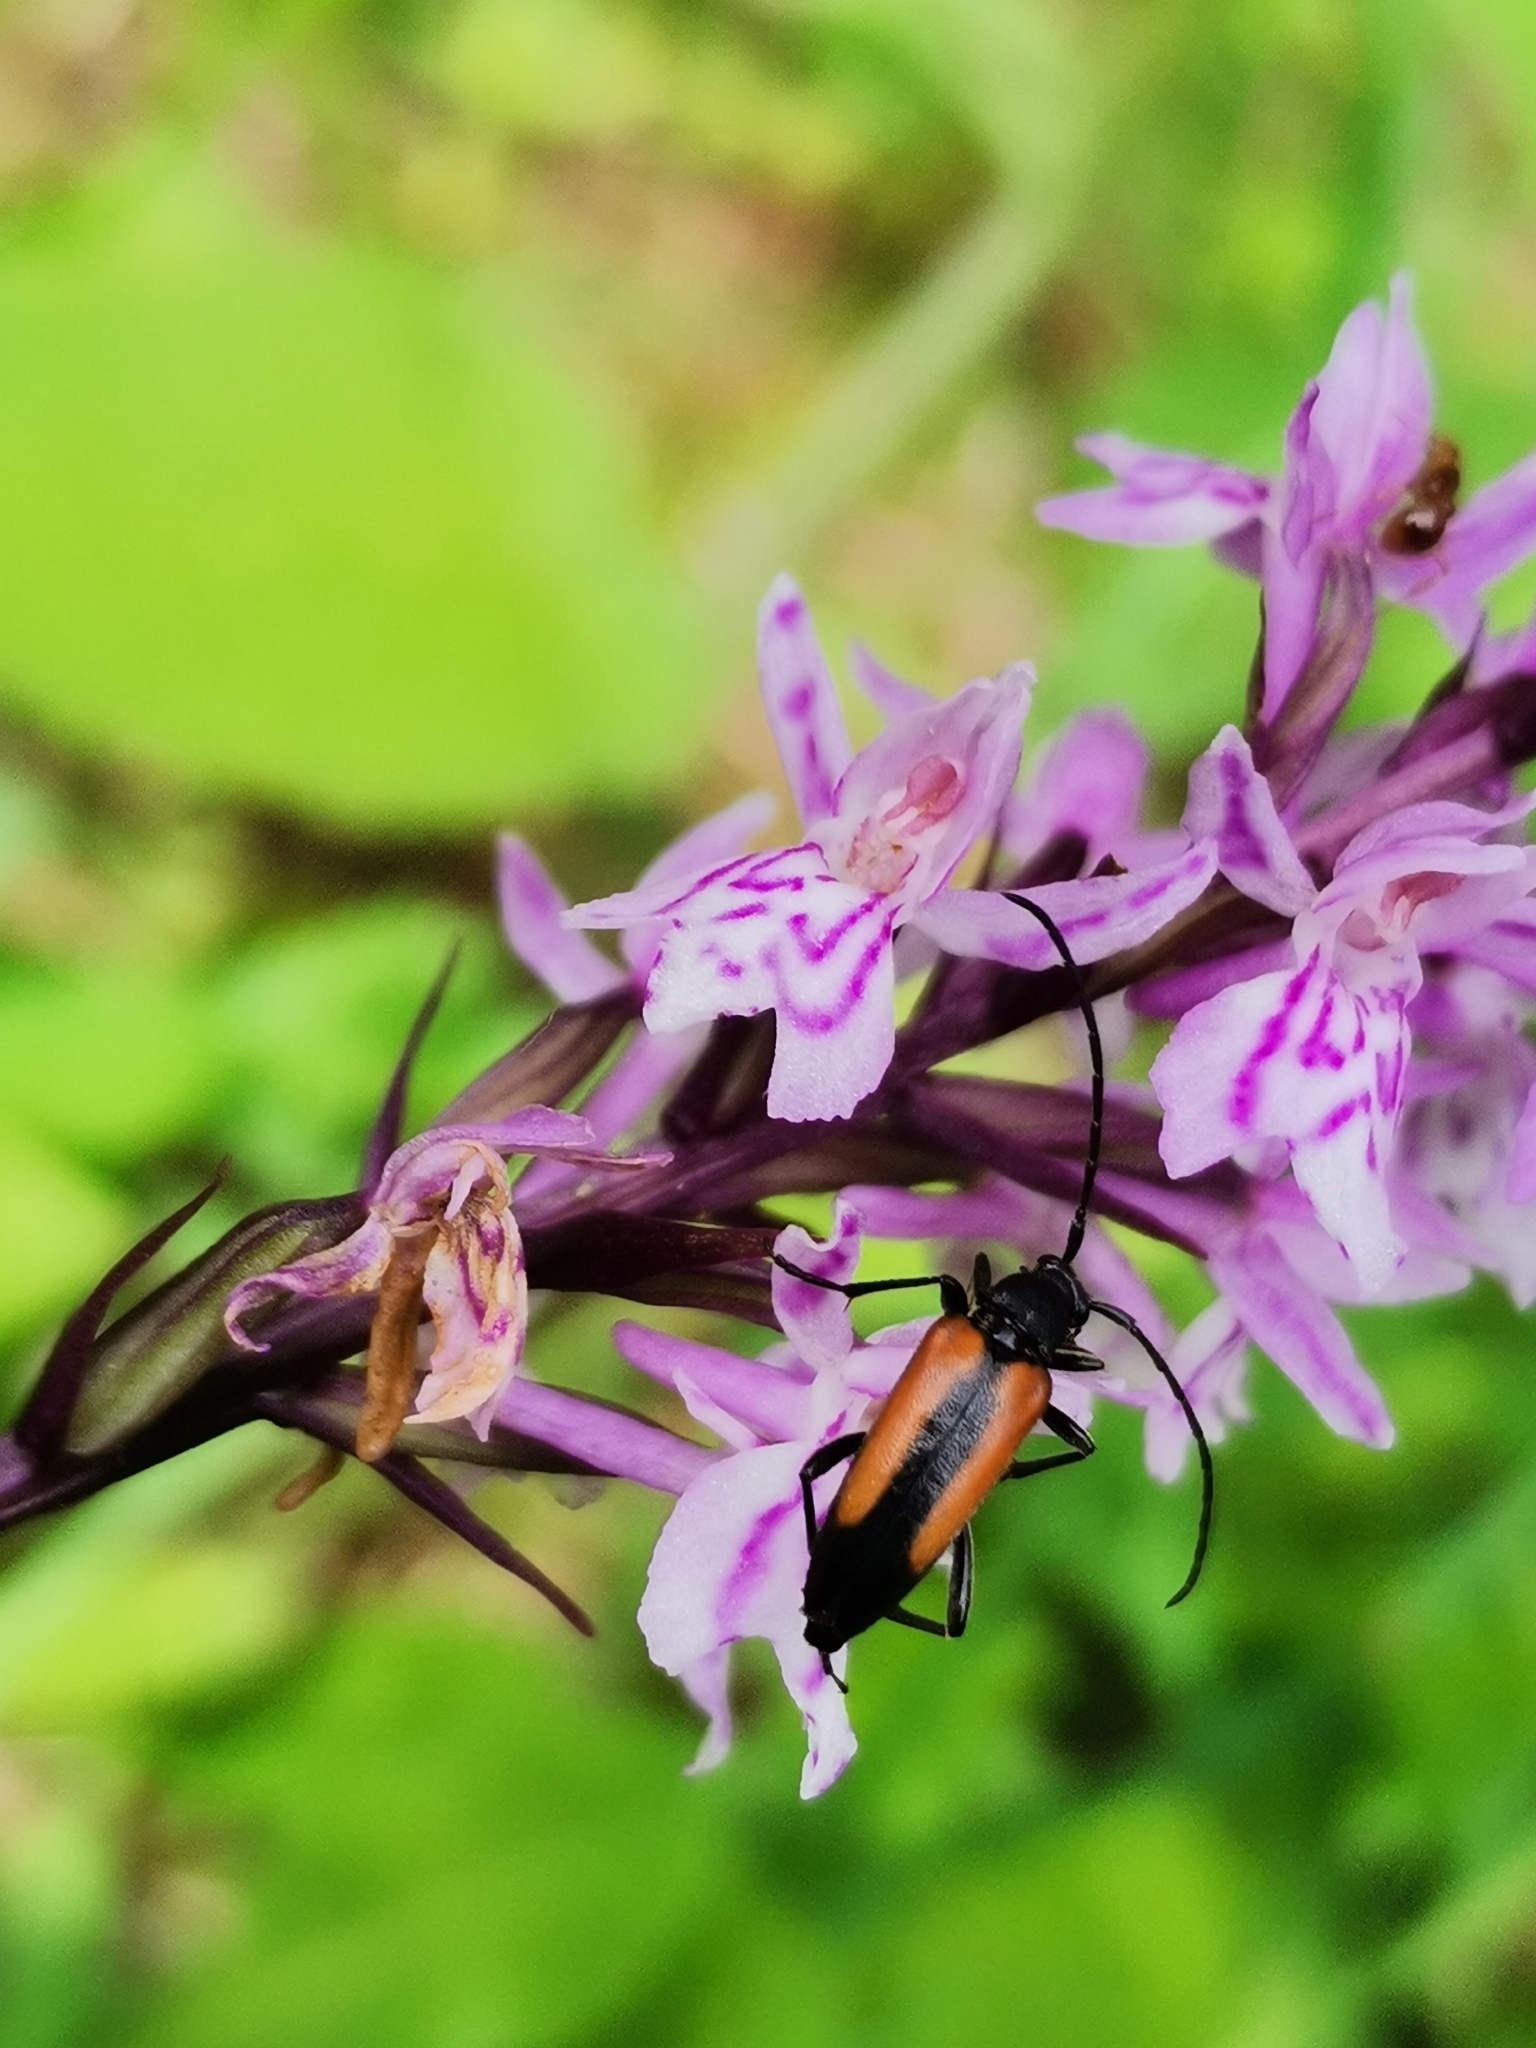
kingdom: Animalia
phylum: Arthropoda
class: Insecta
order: Coleoptera
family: Cerambycidae
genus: Stenurella
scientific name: Stenurella melanura
